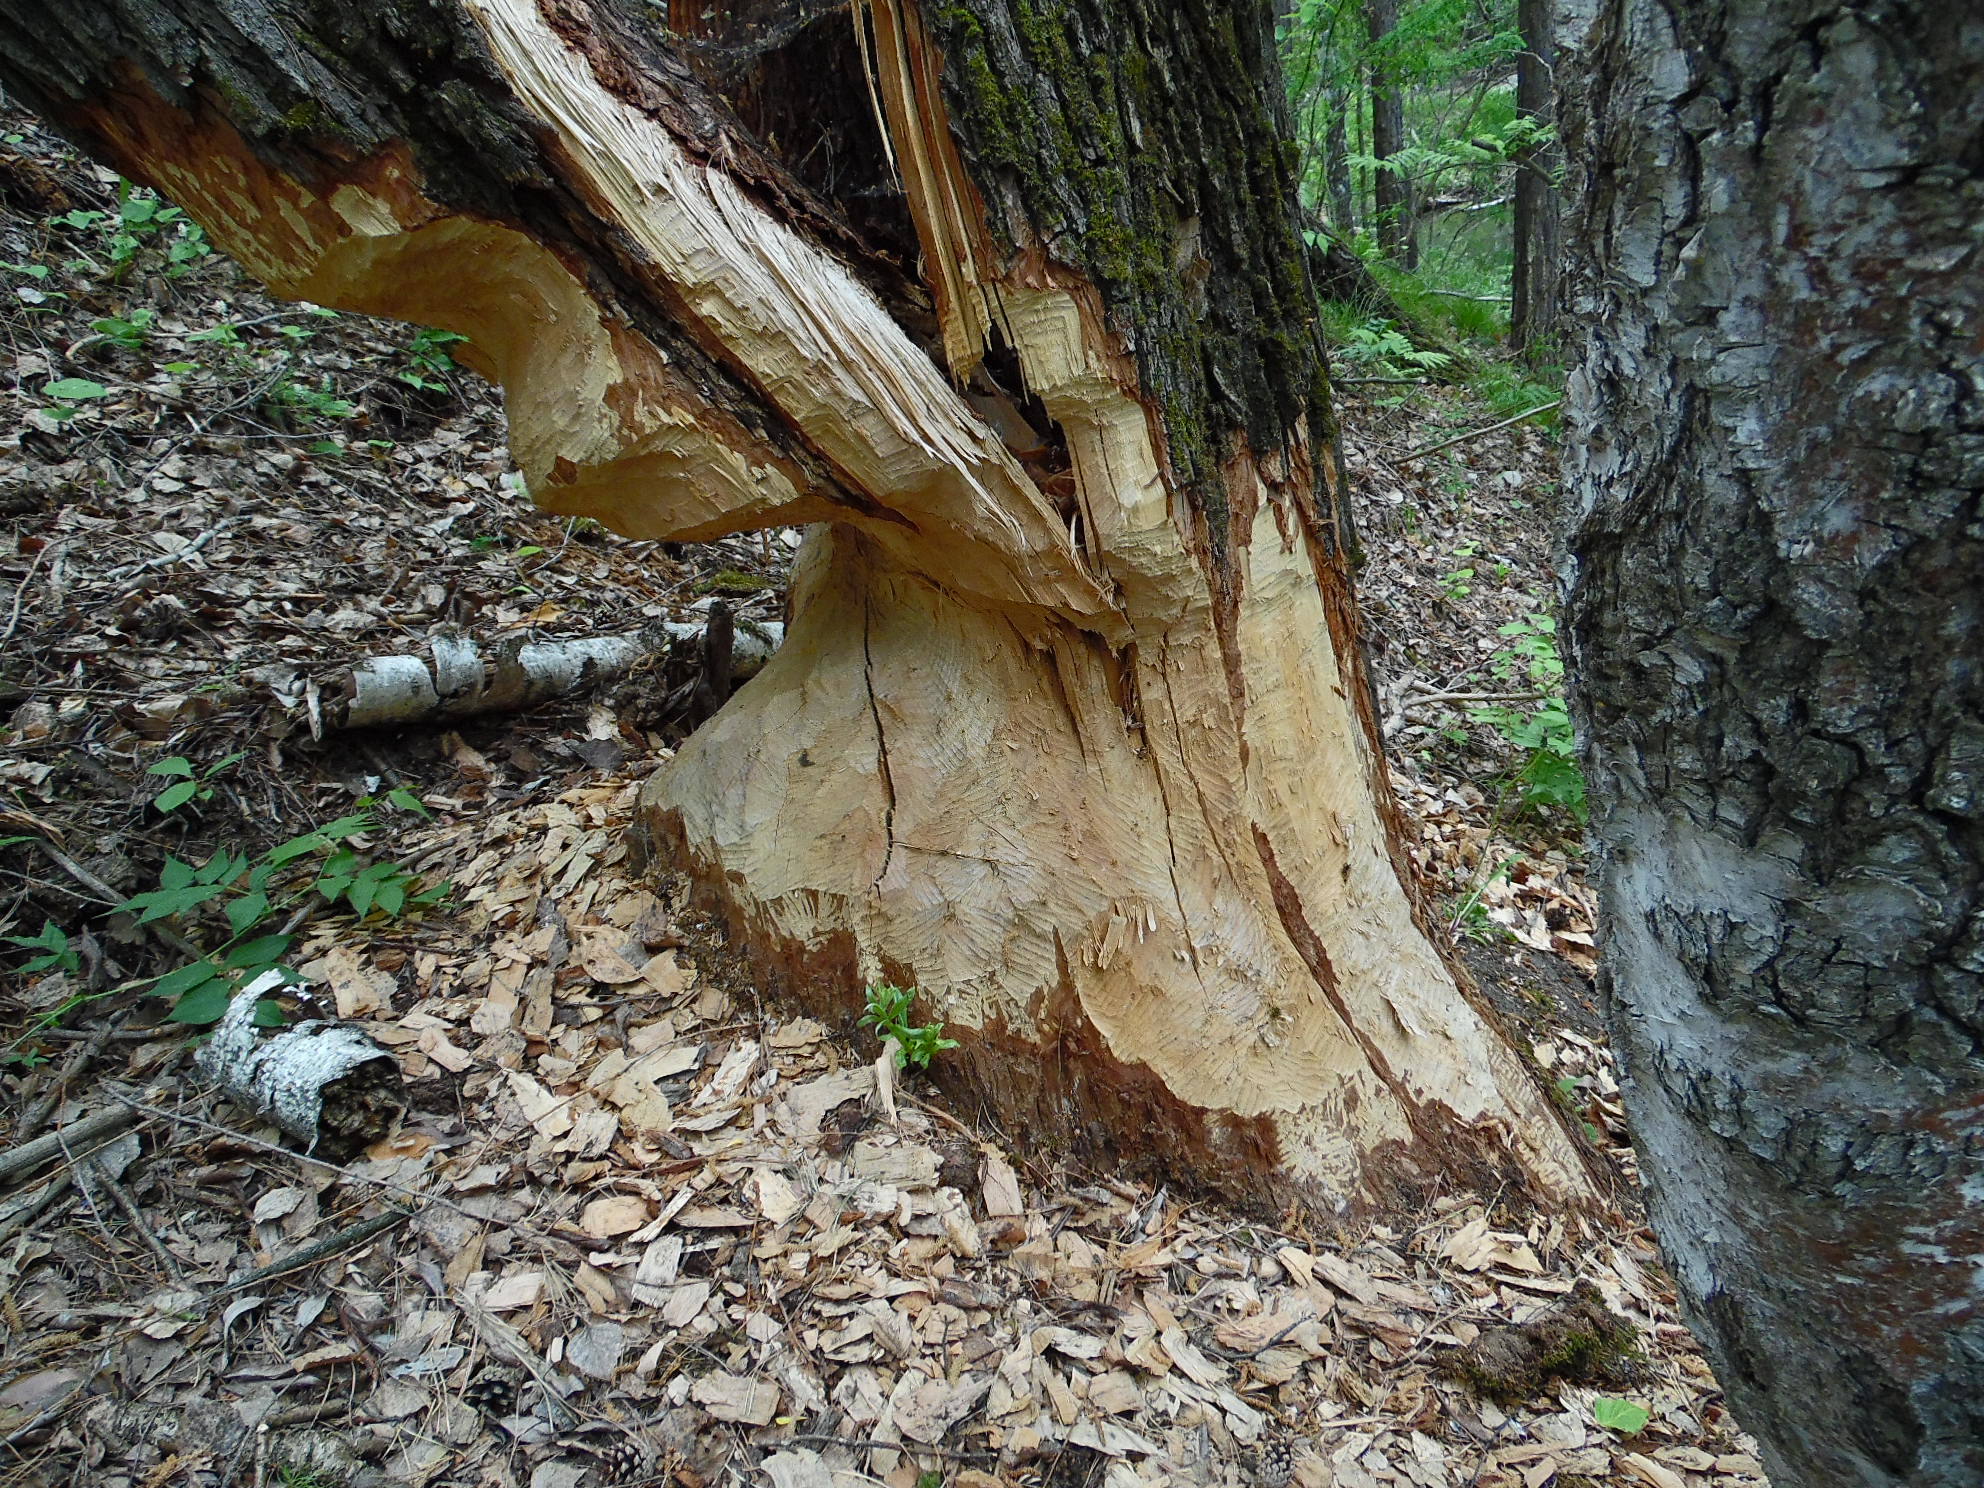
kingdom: Animalia
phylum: Chordata
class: Mammalia
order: Rodentia
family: Castoridae
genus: Castor
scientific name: Castor fiber
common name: Eurasian beaver
